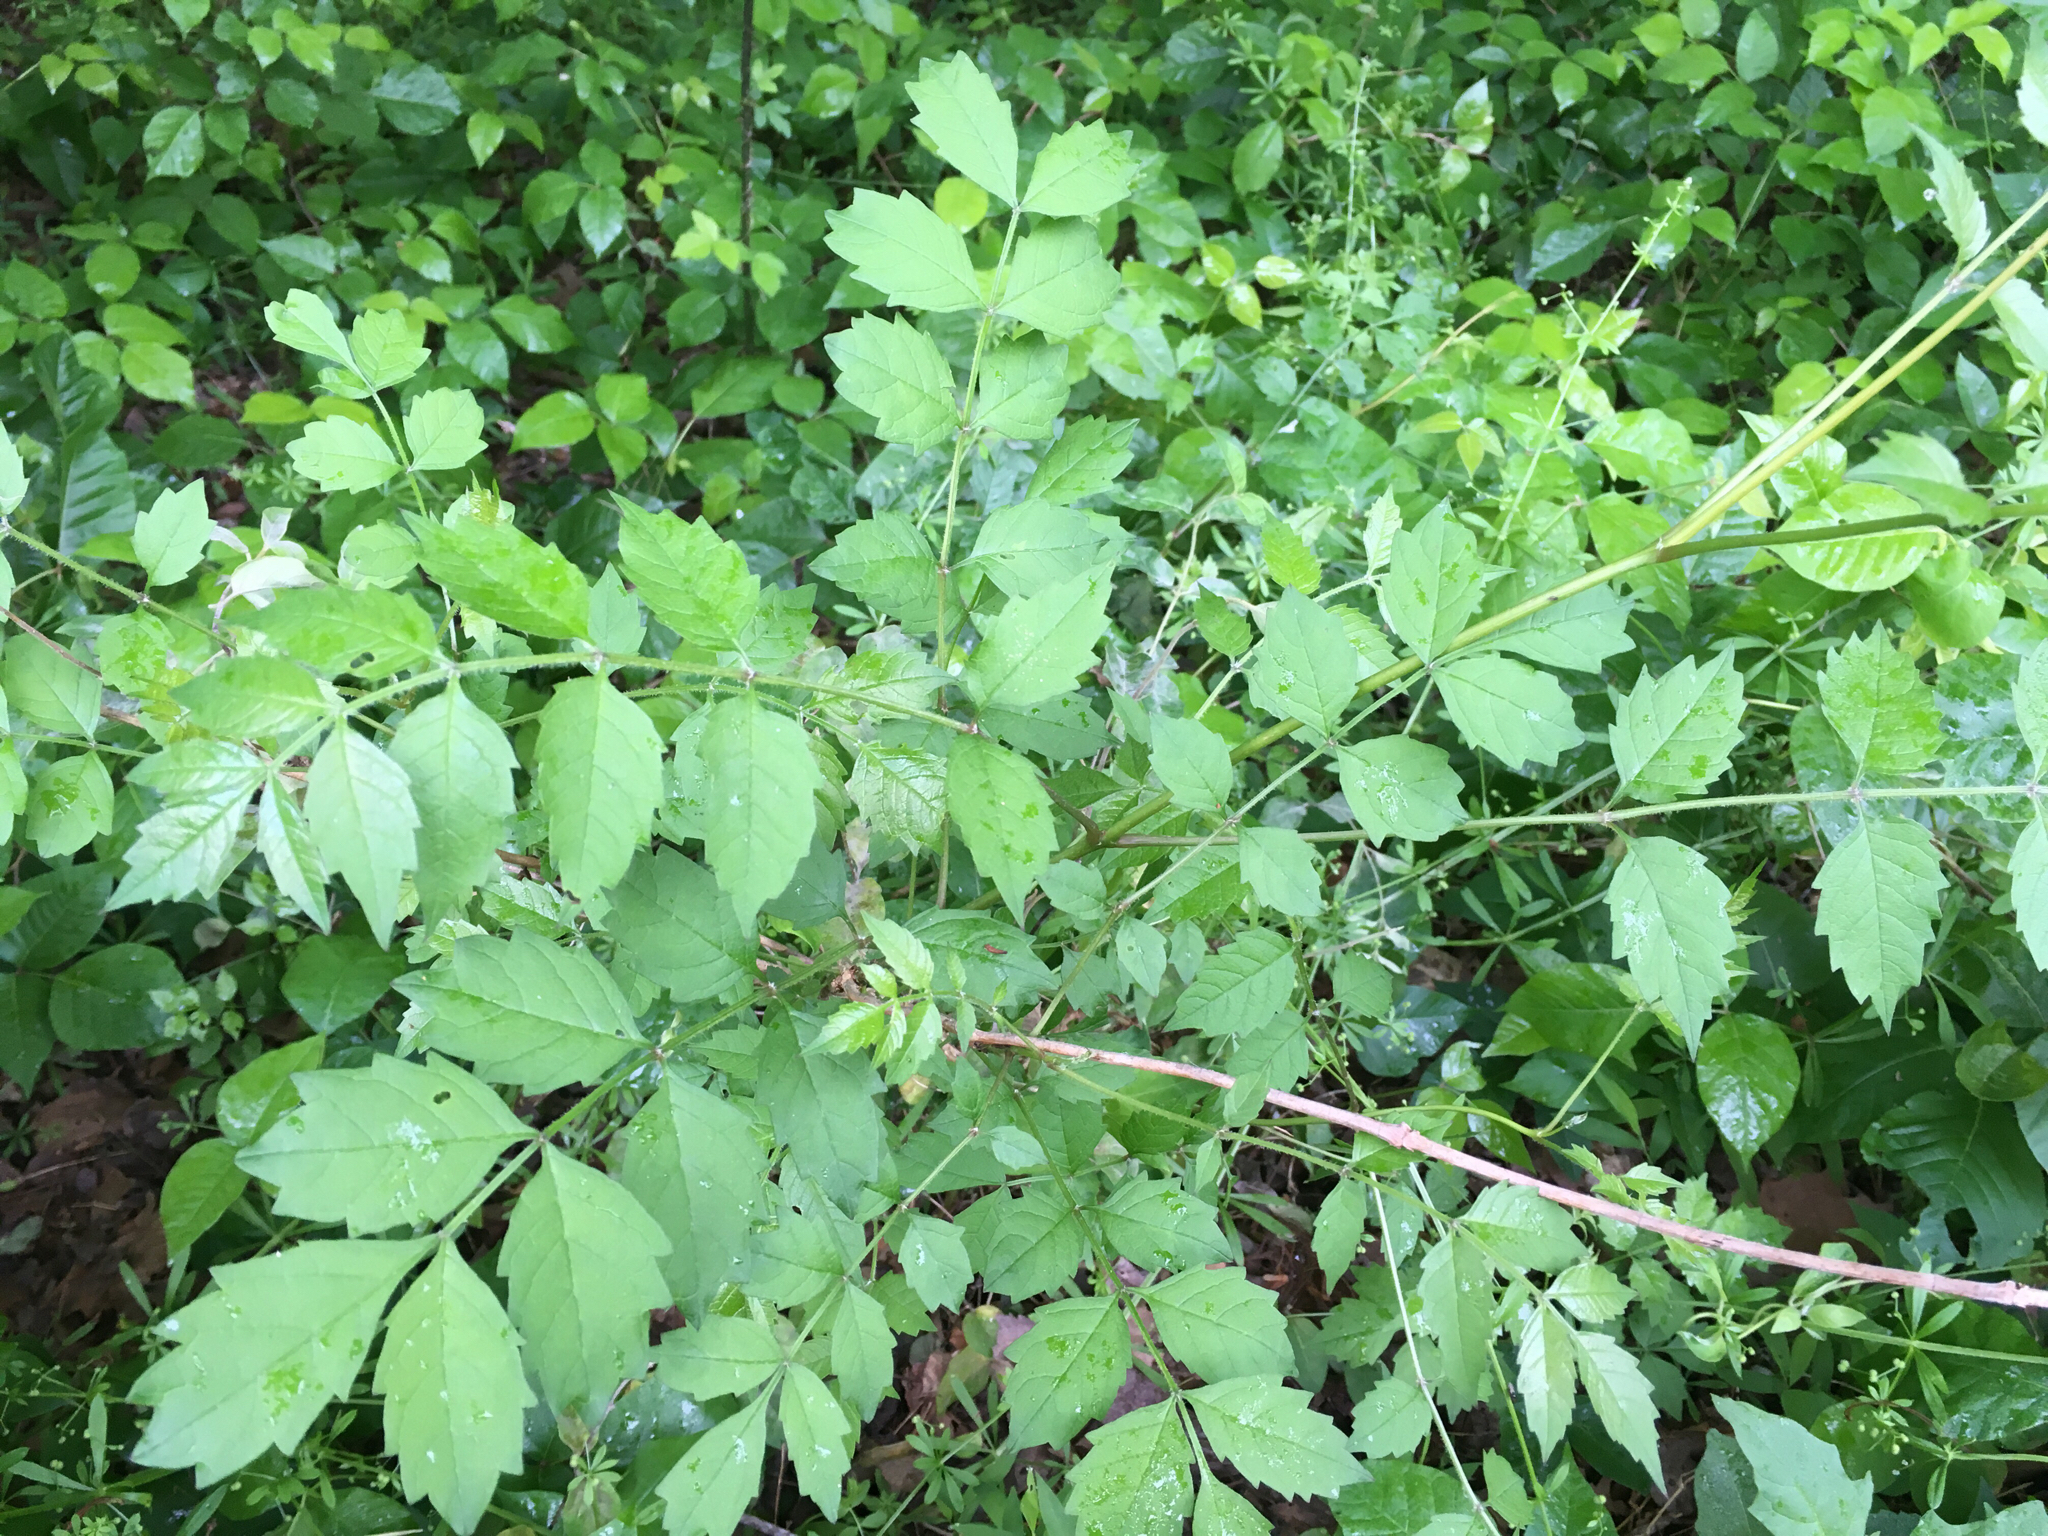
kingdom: Plantae
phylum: Tracheophyta
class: Magnoliopsida
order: Lamiales
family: Bignoniaceae
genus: Campsis
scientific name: Campsis radicans
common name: Trumpet-creeper
